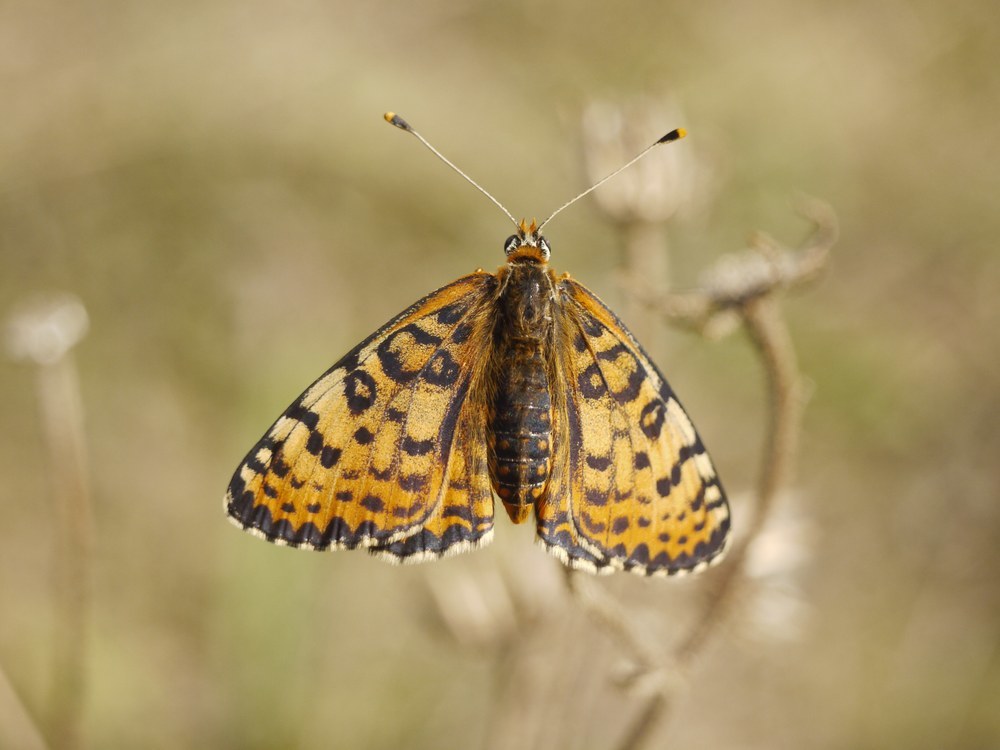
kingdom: Animalia
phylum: Arthropoda
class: Insecta
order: Lepidoptera
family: Nymphalidae
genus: Melitaea
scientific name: Melitaea didyma
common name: Spotted fritillary
